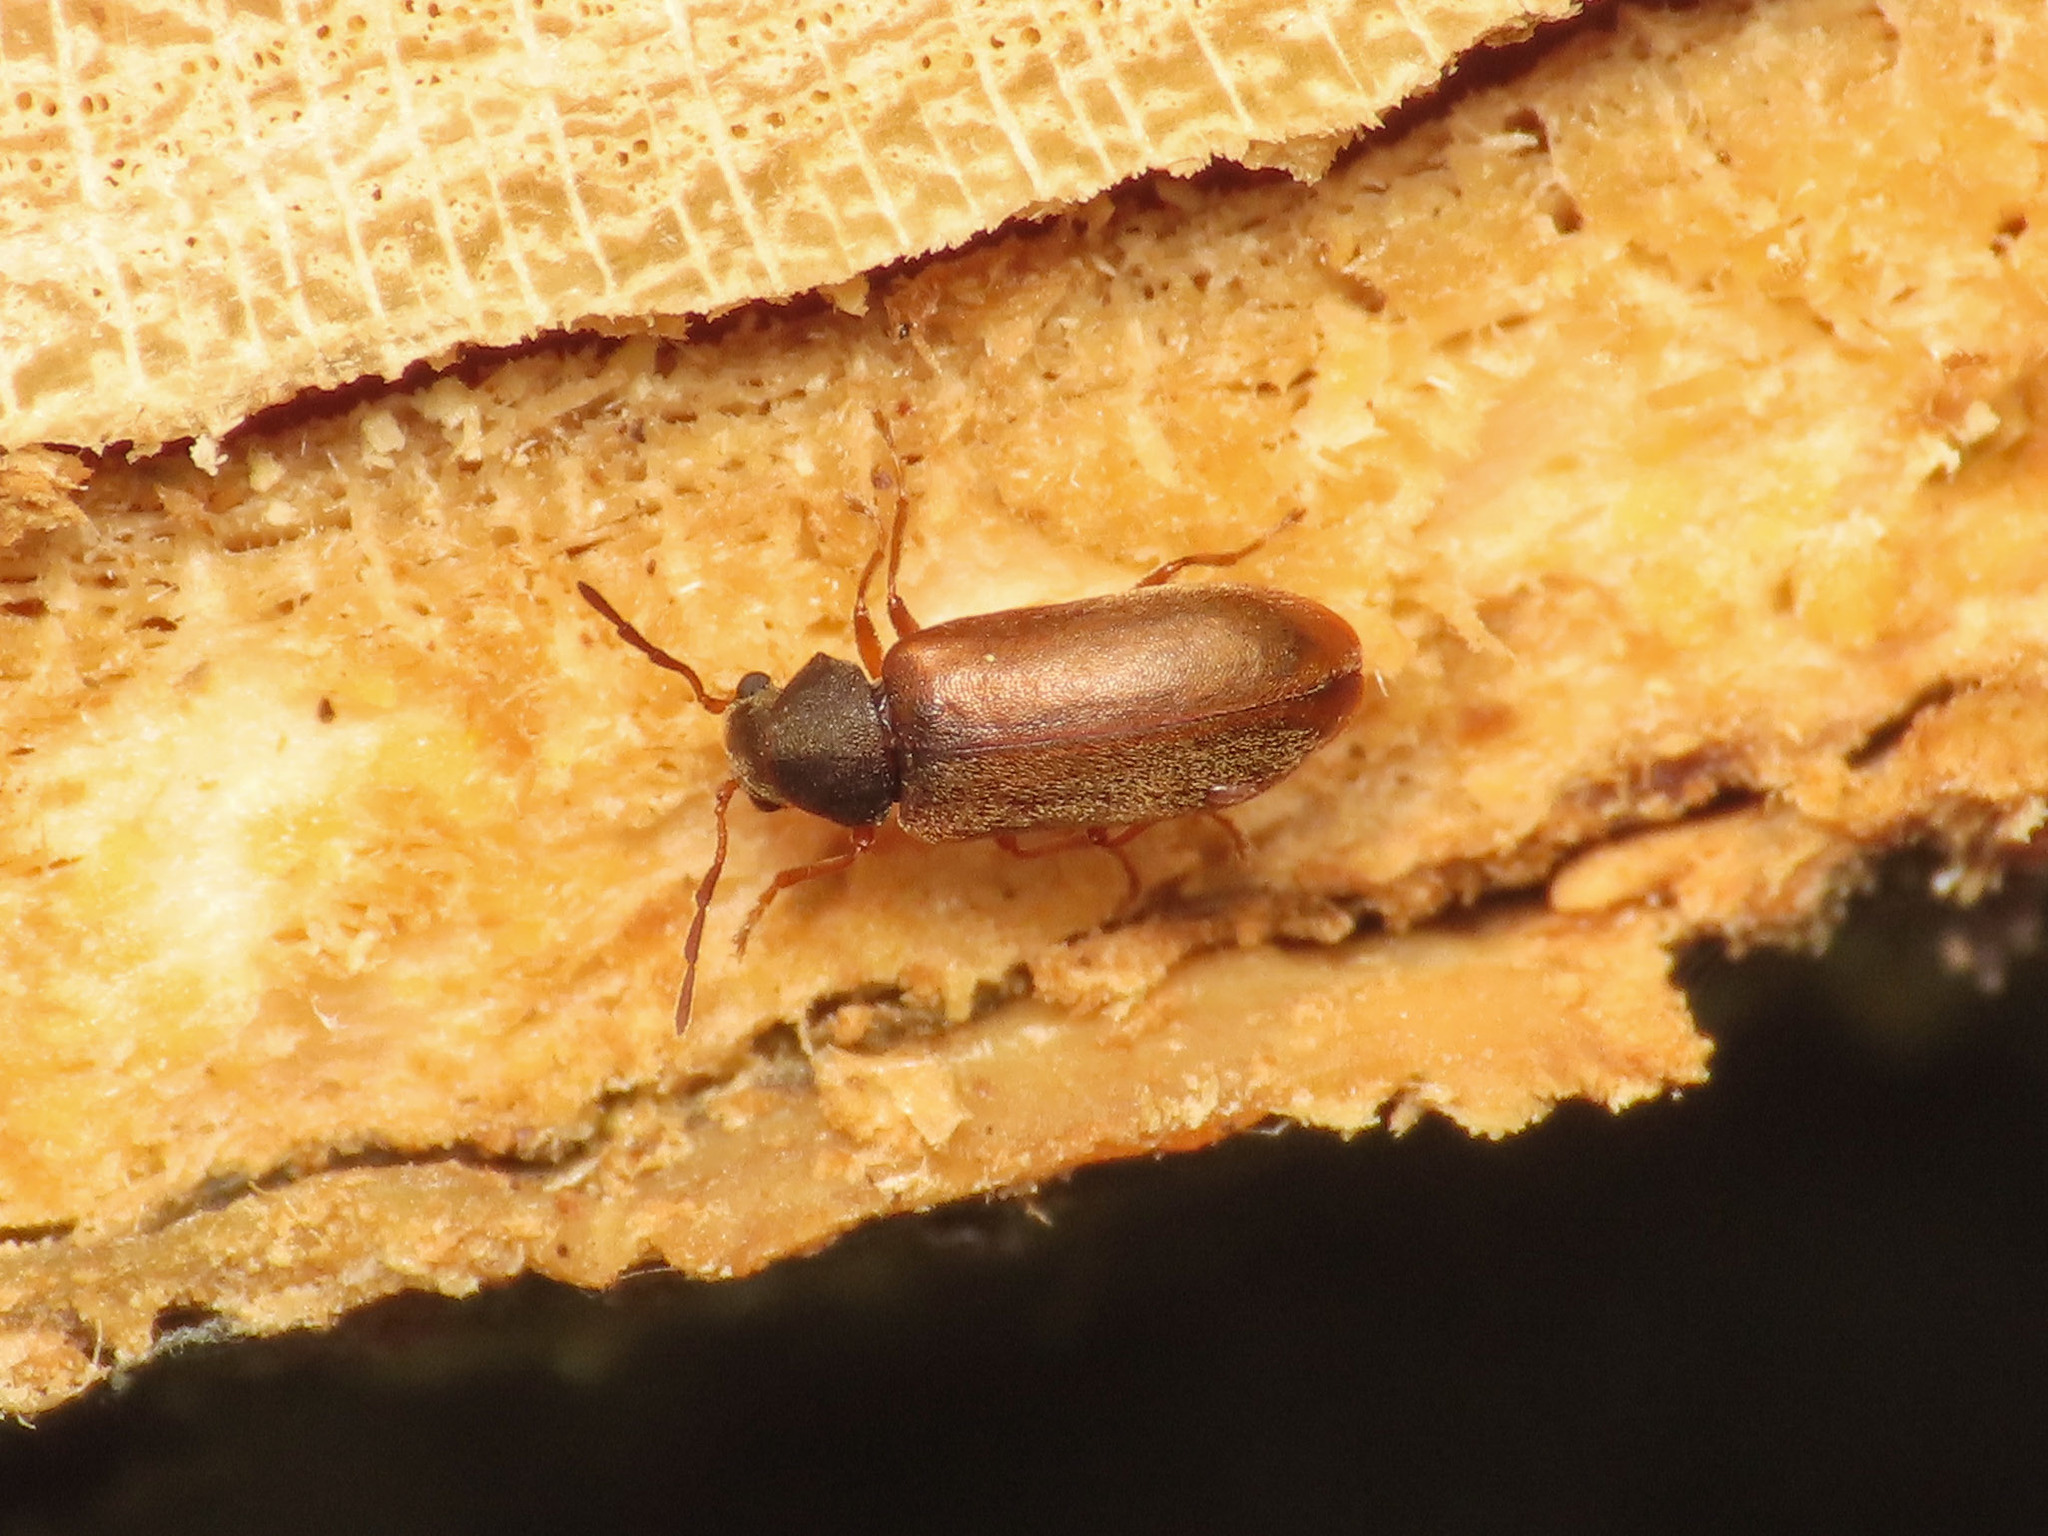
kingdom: Animalia
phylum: Arthropoda
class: Insecta
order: Coleoptera
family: Anobiidae
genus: Episernus
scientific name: Episernus gentilis
